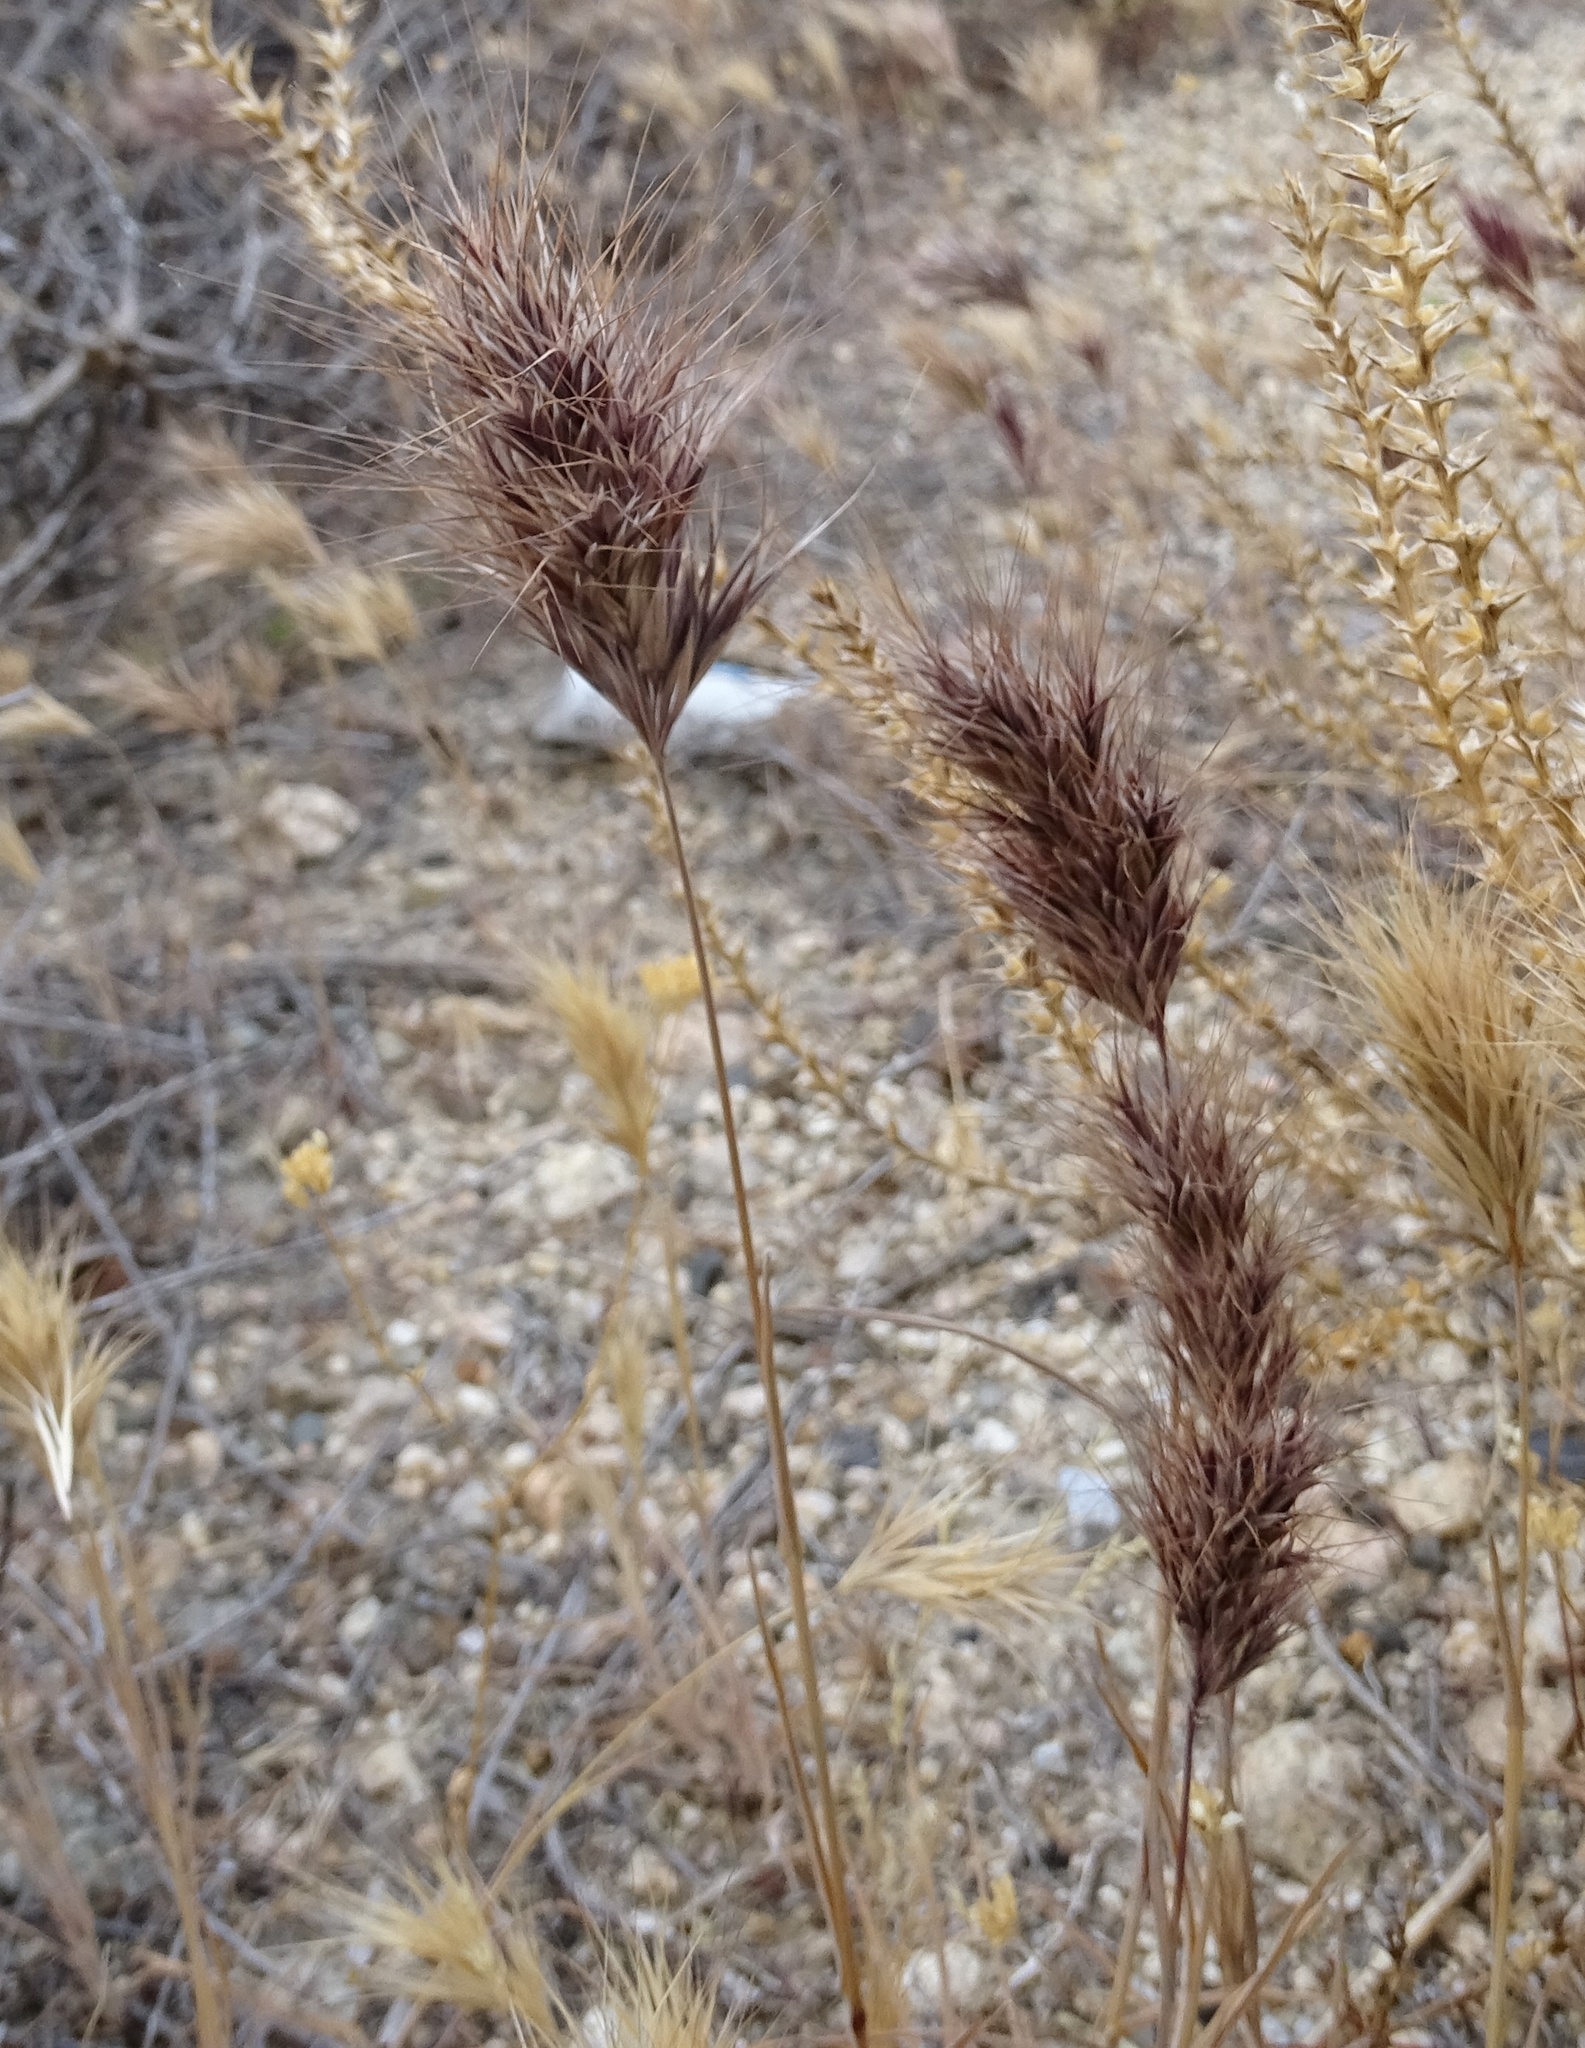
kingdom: Plantae
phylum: Tracheophyta
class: Liliopsida
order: Poales
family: Poaceae
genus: Bromus
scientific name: Bromus rubens
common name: Red brome
